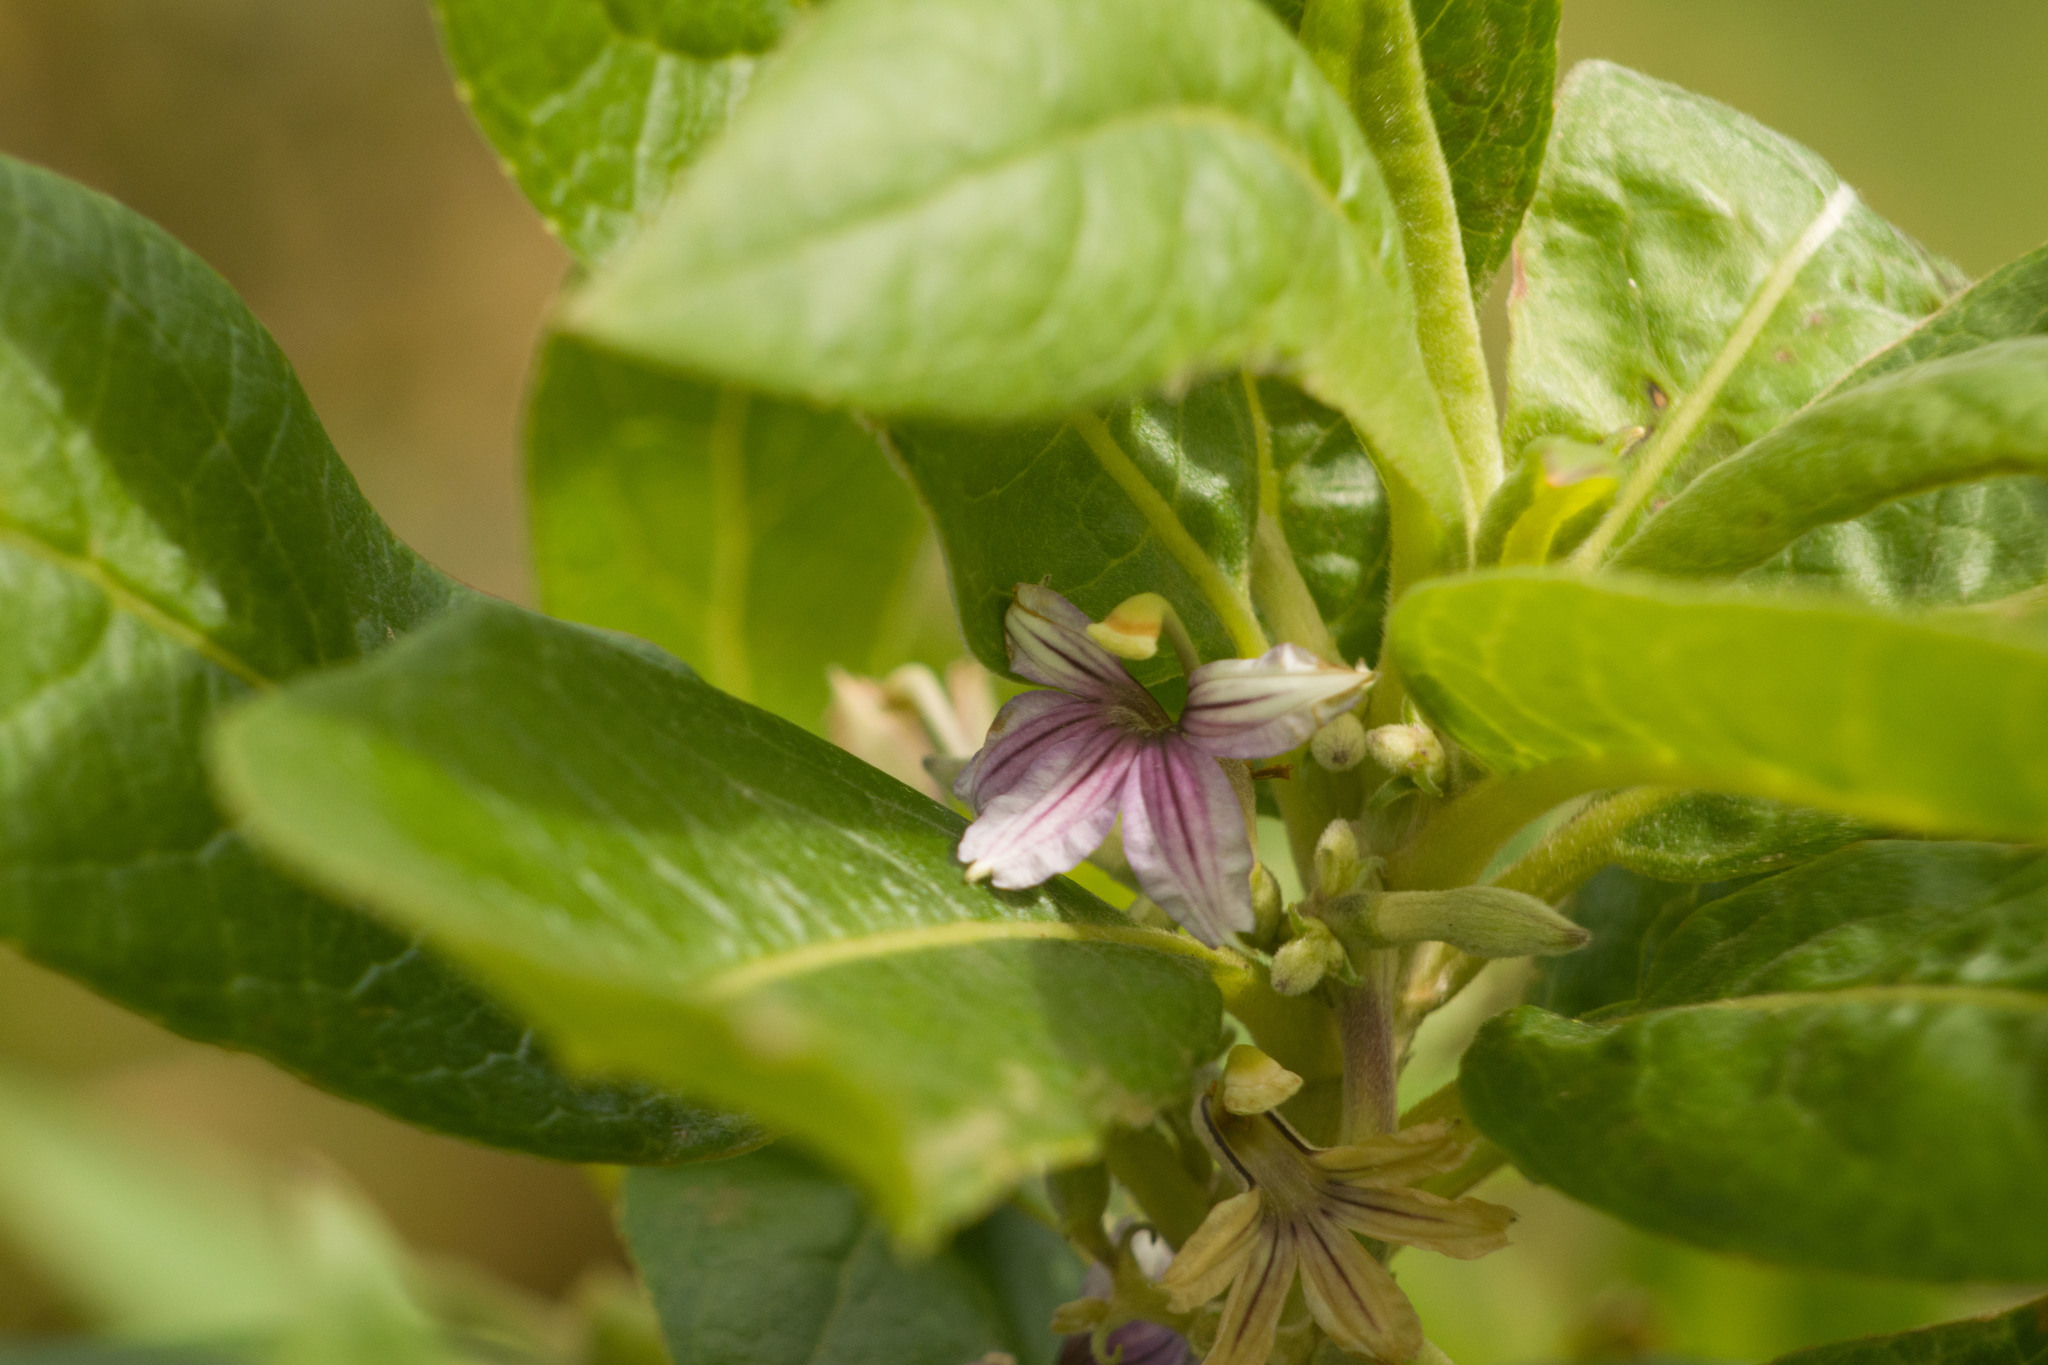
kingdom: Plantae
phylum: Tracheophyta
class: Magnoliopsida
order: Asterales
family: Goodeniaceae
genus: Scaevola
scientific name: Scaevola mollis
